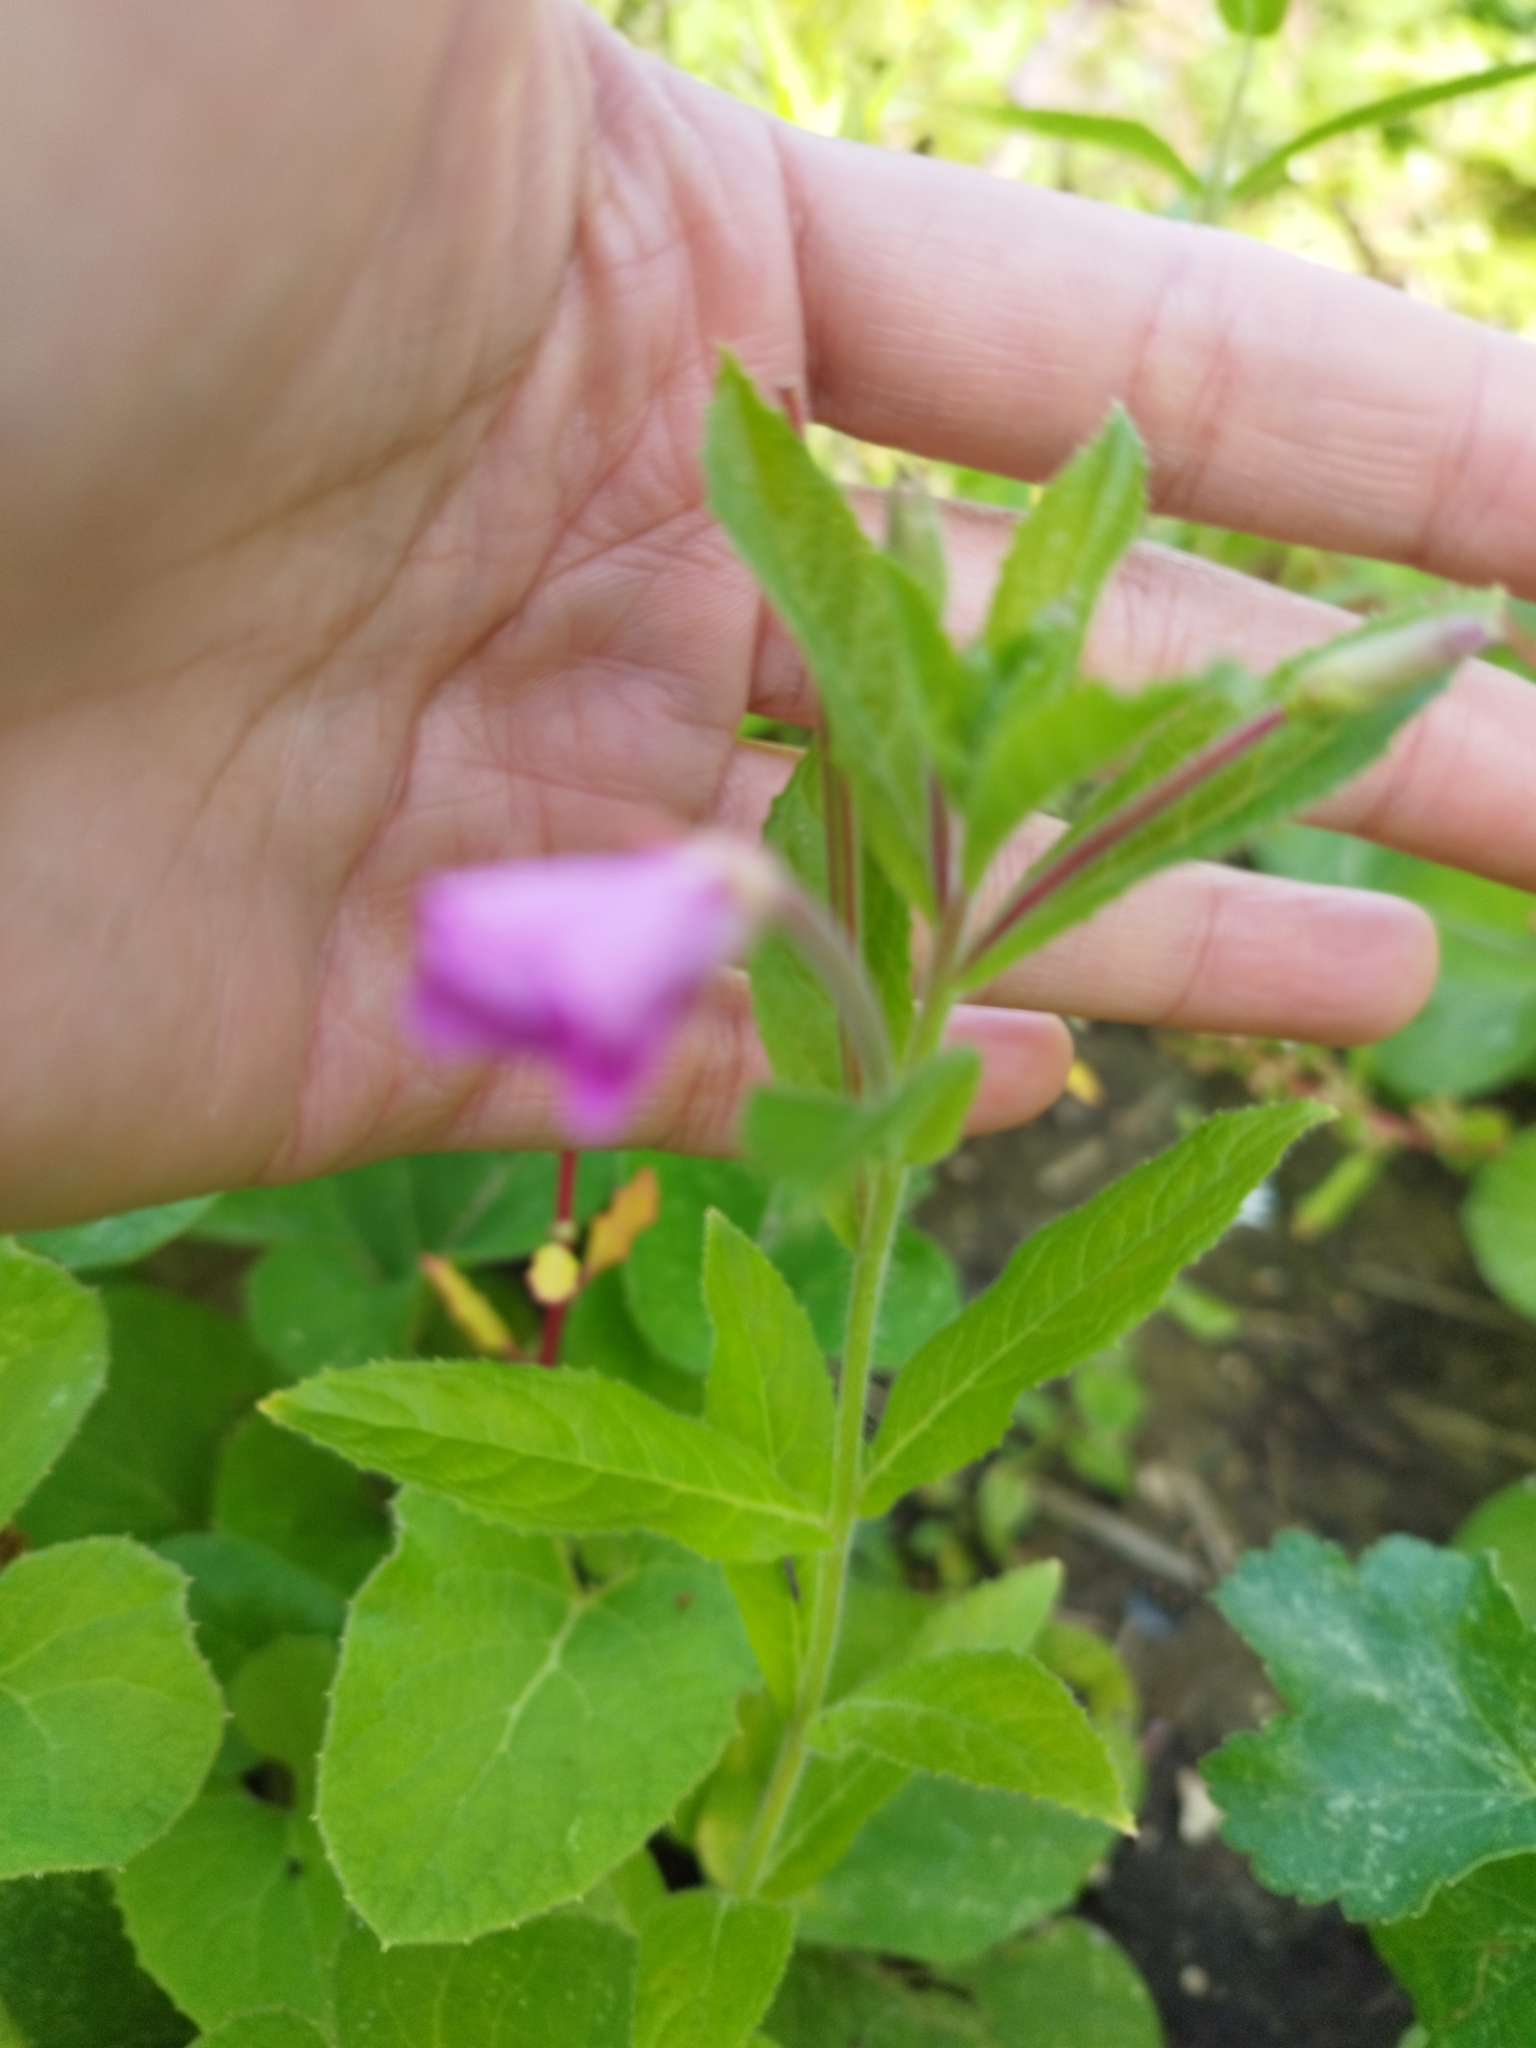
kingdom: Plantae
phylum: Tracheophyta
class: Magnoliopsida
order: Myrtales
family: Onagraceae
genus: Epilobium
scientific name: Epilobium hirsutum
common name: Great willowherb
